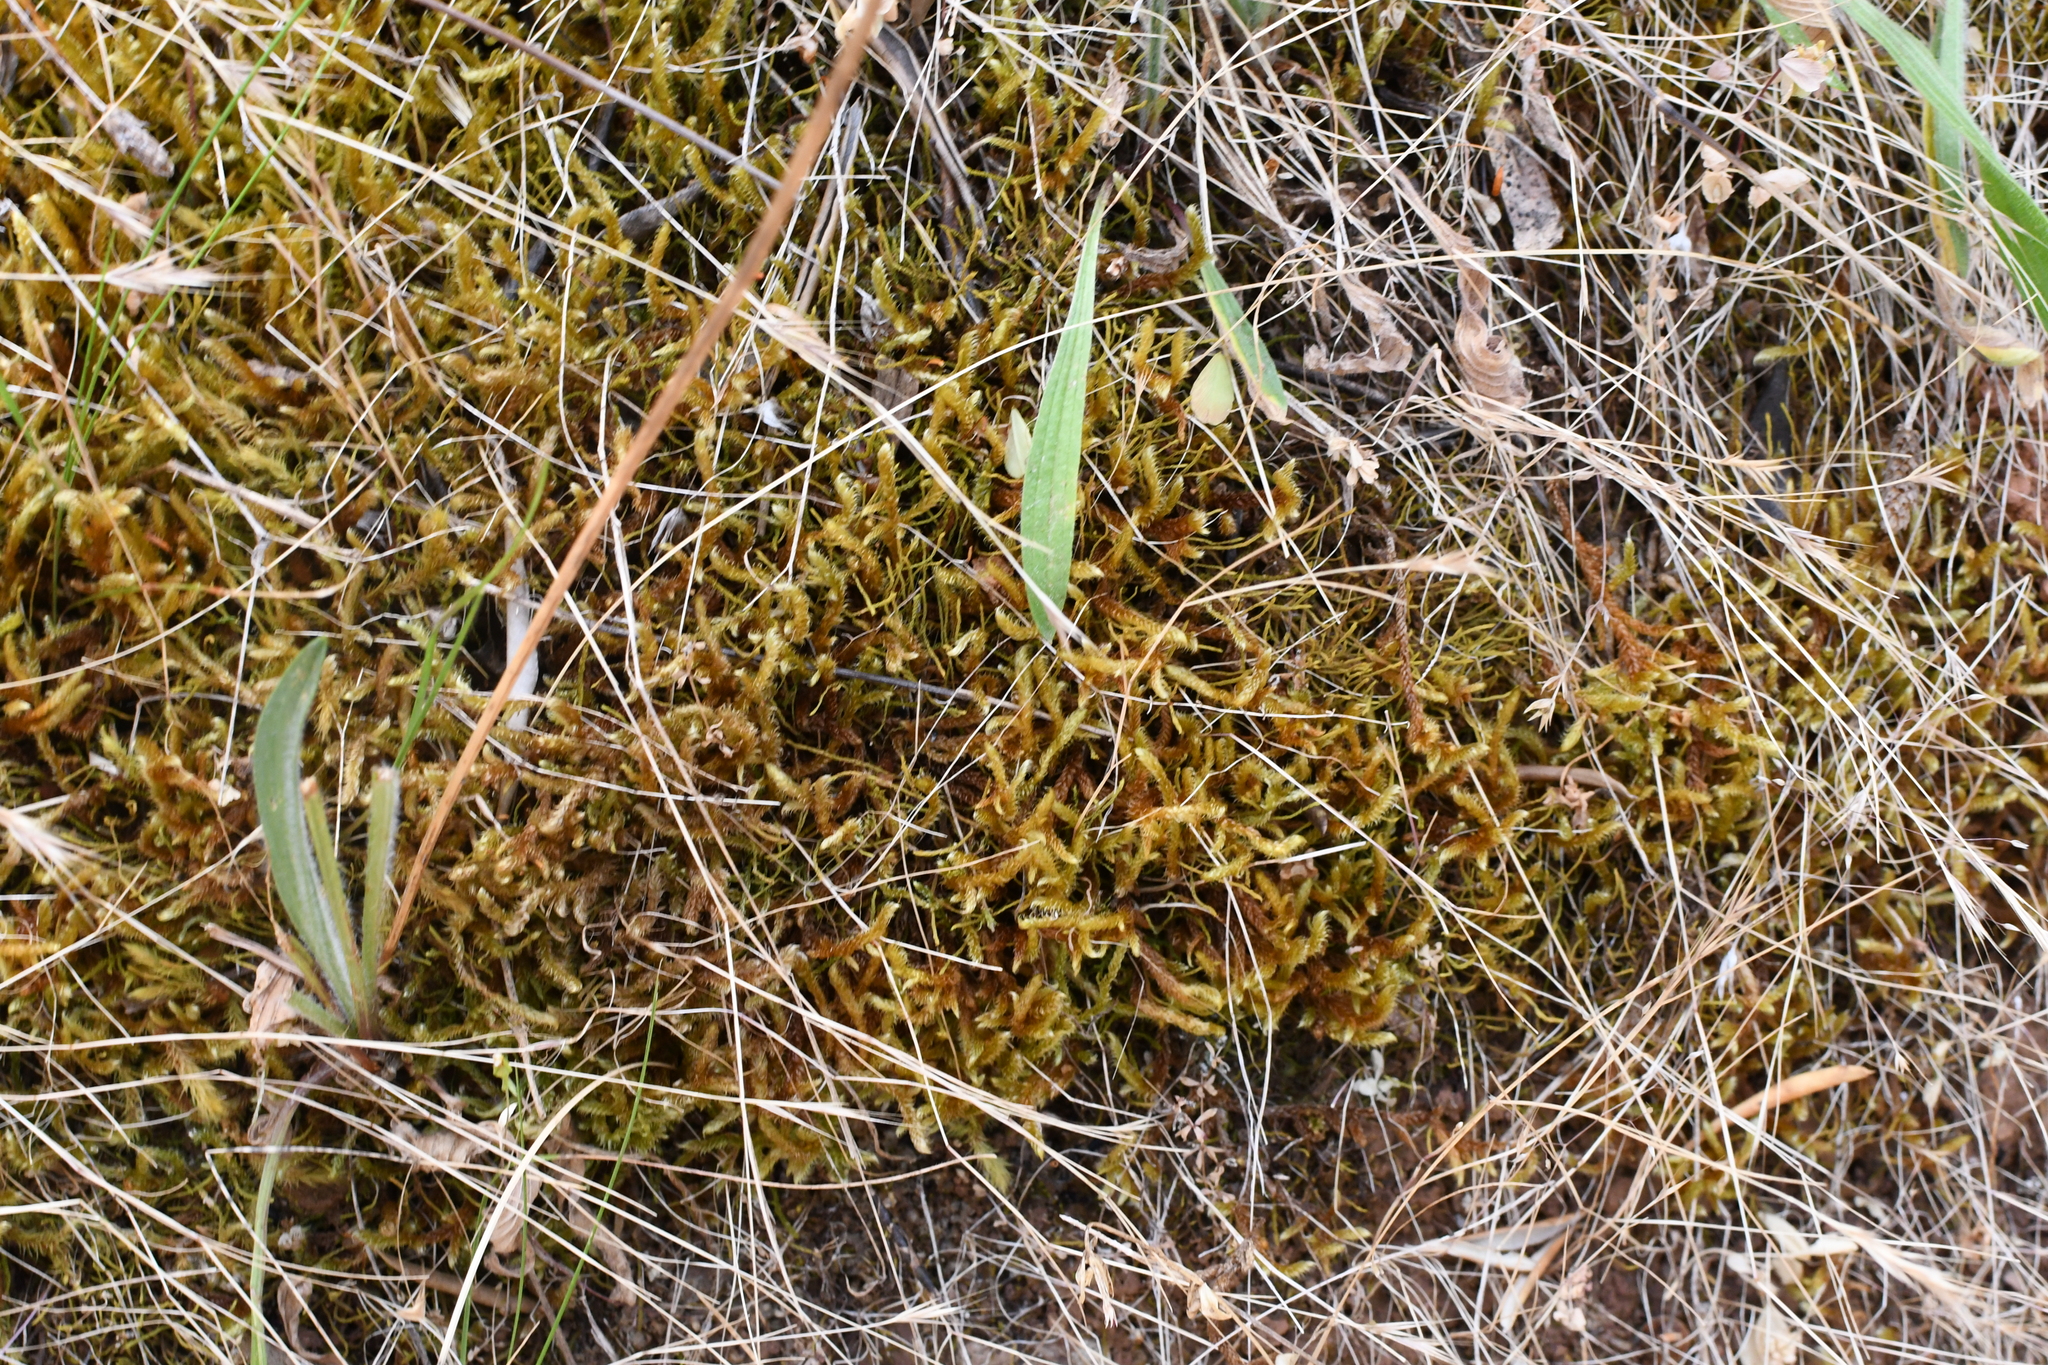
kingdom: Plantae
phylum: Bryophyta
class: Bryopsida
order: Hypnales
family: Hypnaceae
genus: Hypnum
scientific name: Hypnum cupressiforme
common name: Cypress-leaved plait-moss
